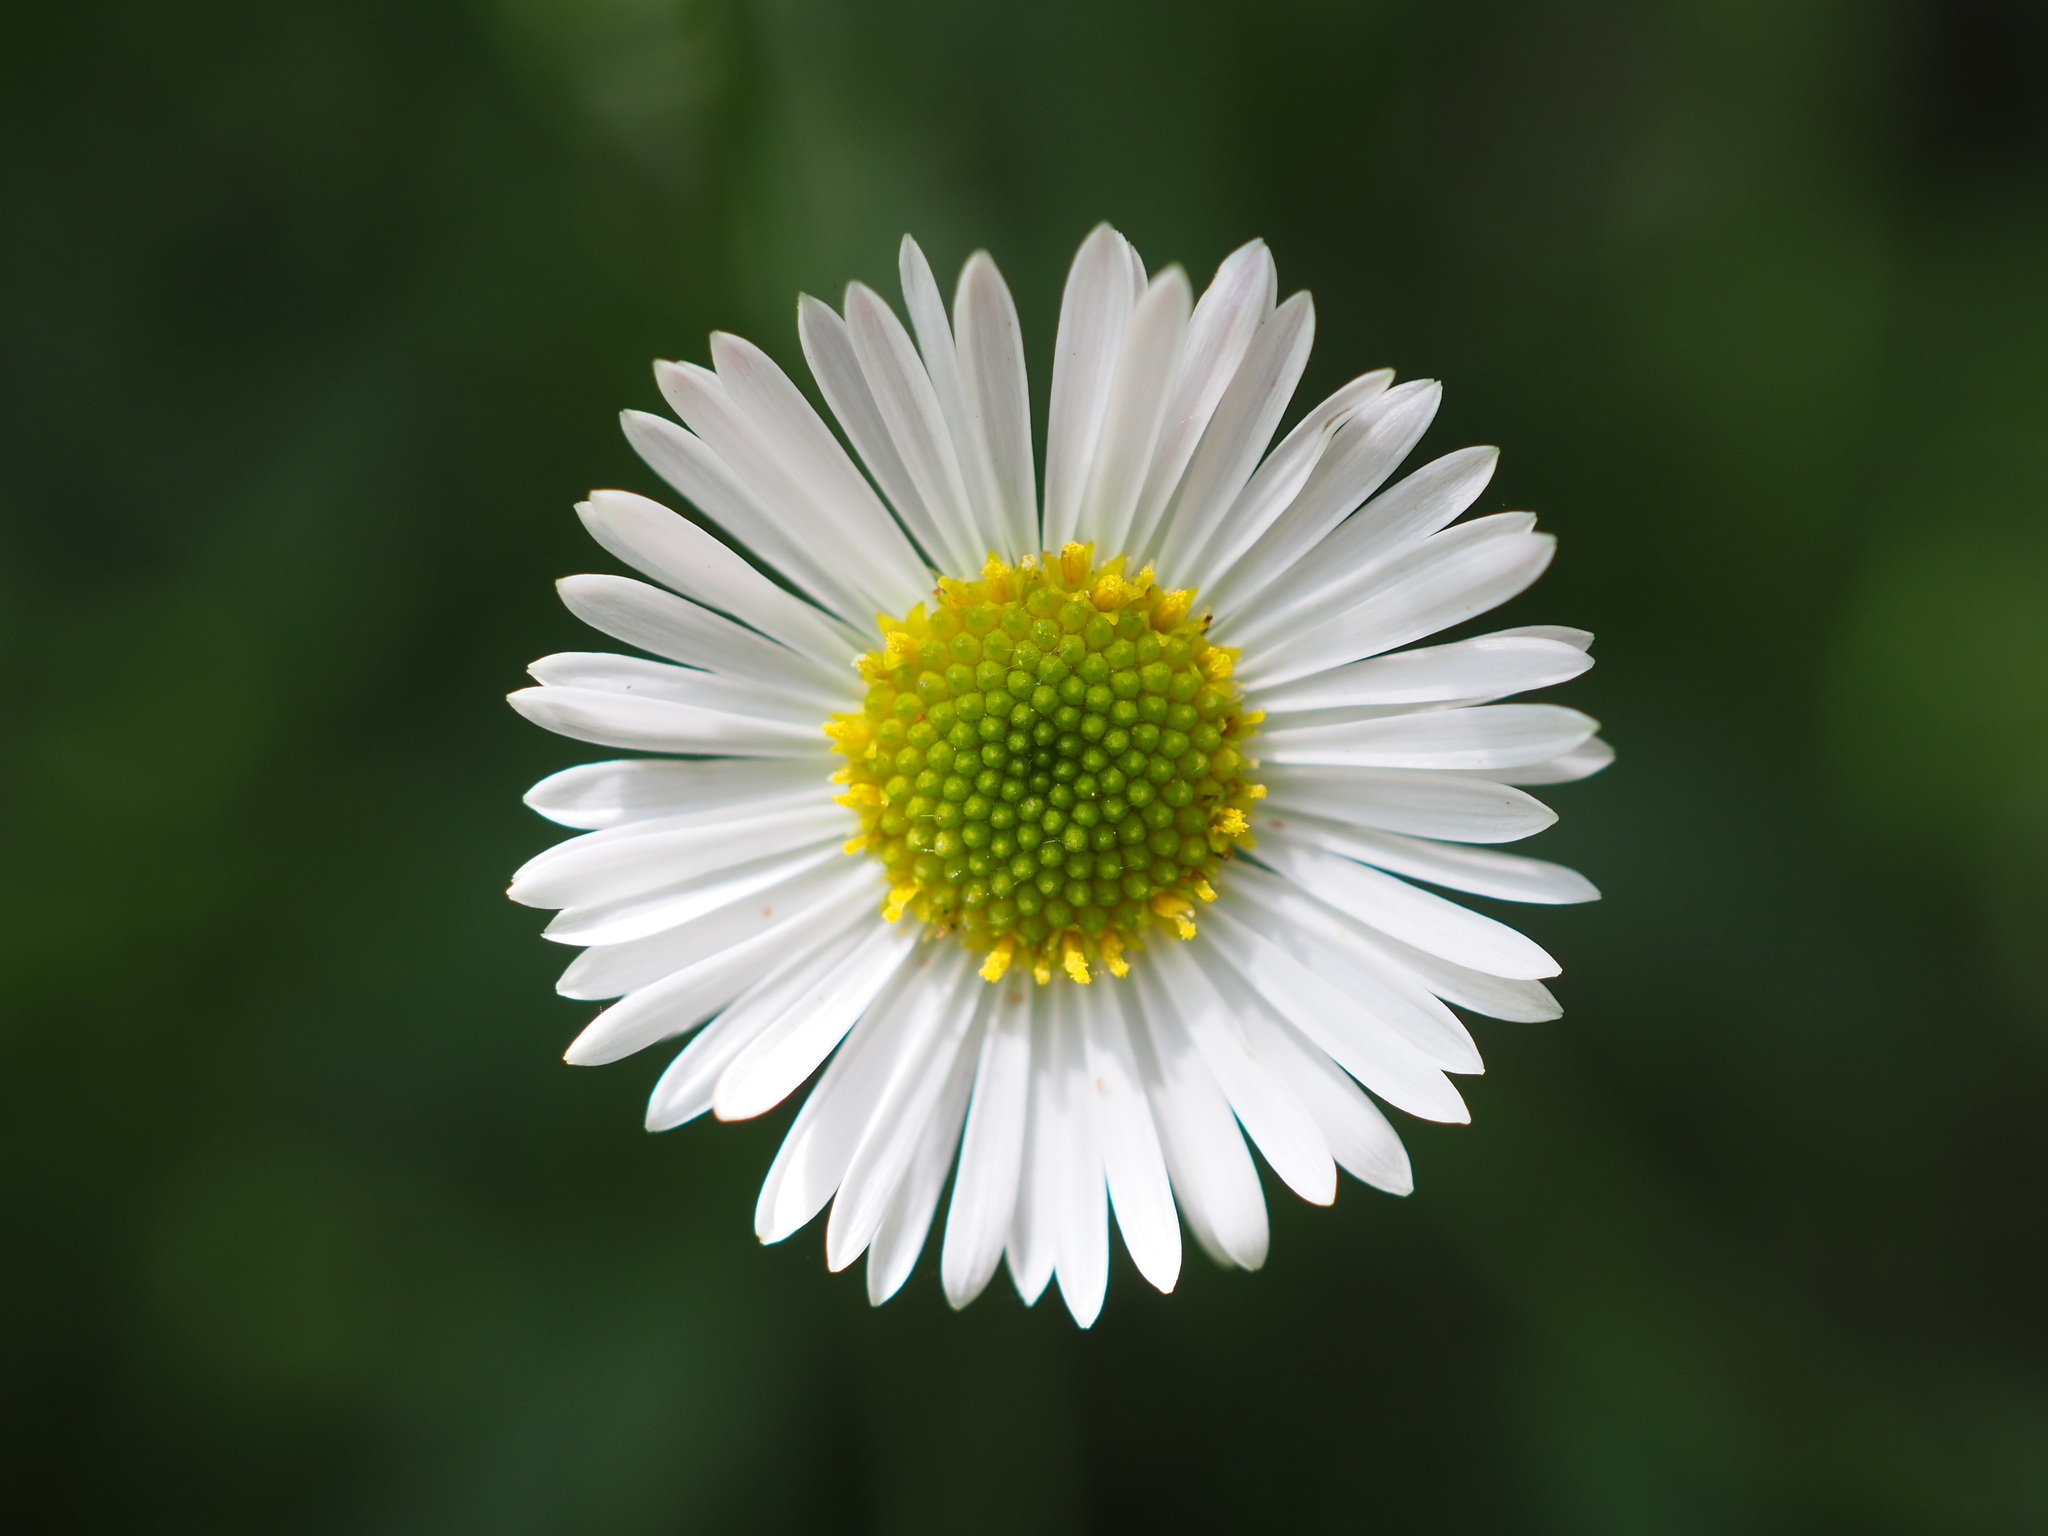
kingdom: Plantae
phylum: Tracheophyta
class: Magnoliopsida
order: Asterales
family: Asteraceae
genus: Erigeron
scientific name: Erigeron karvinskianus
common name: Mexican fleabane
